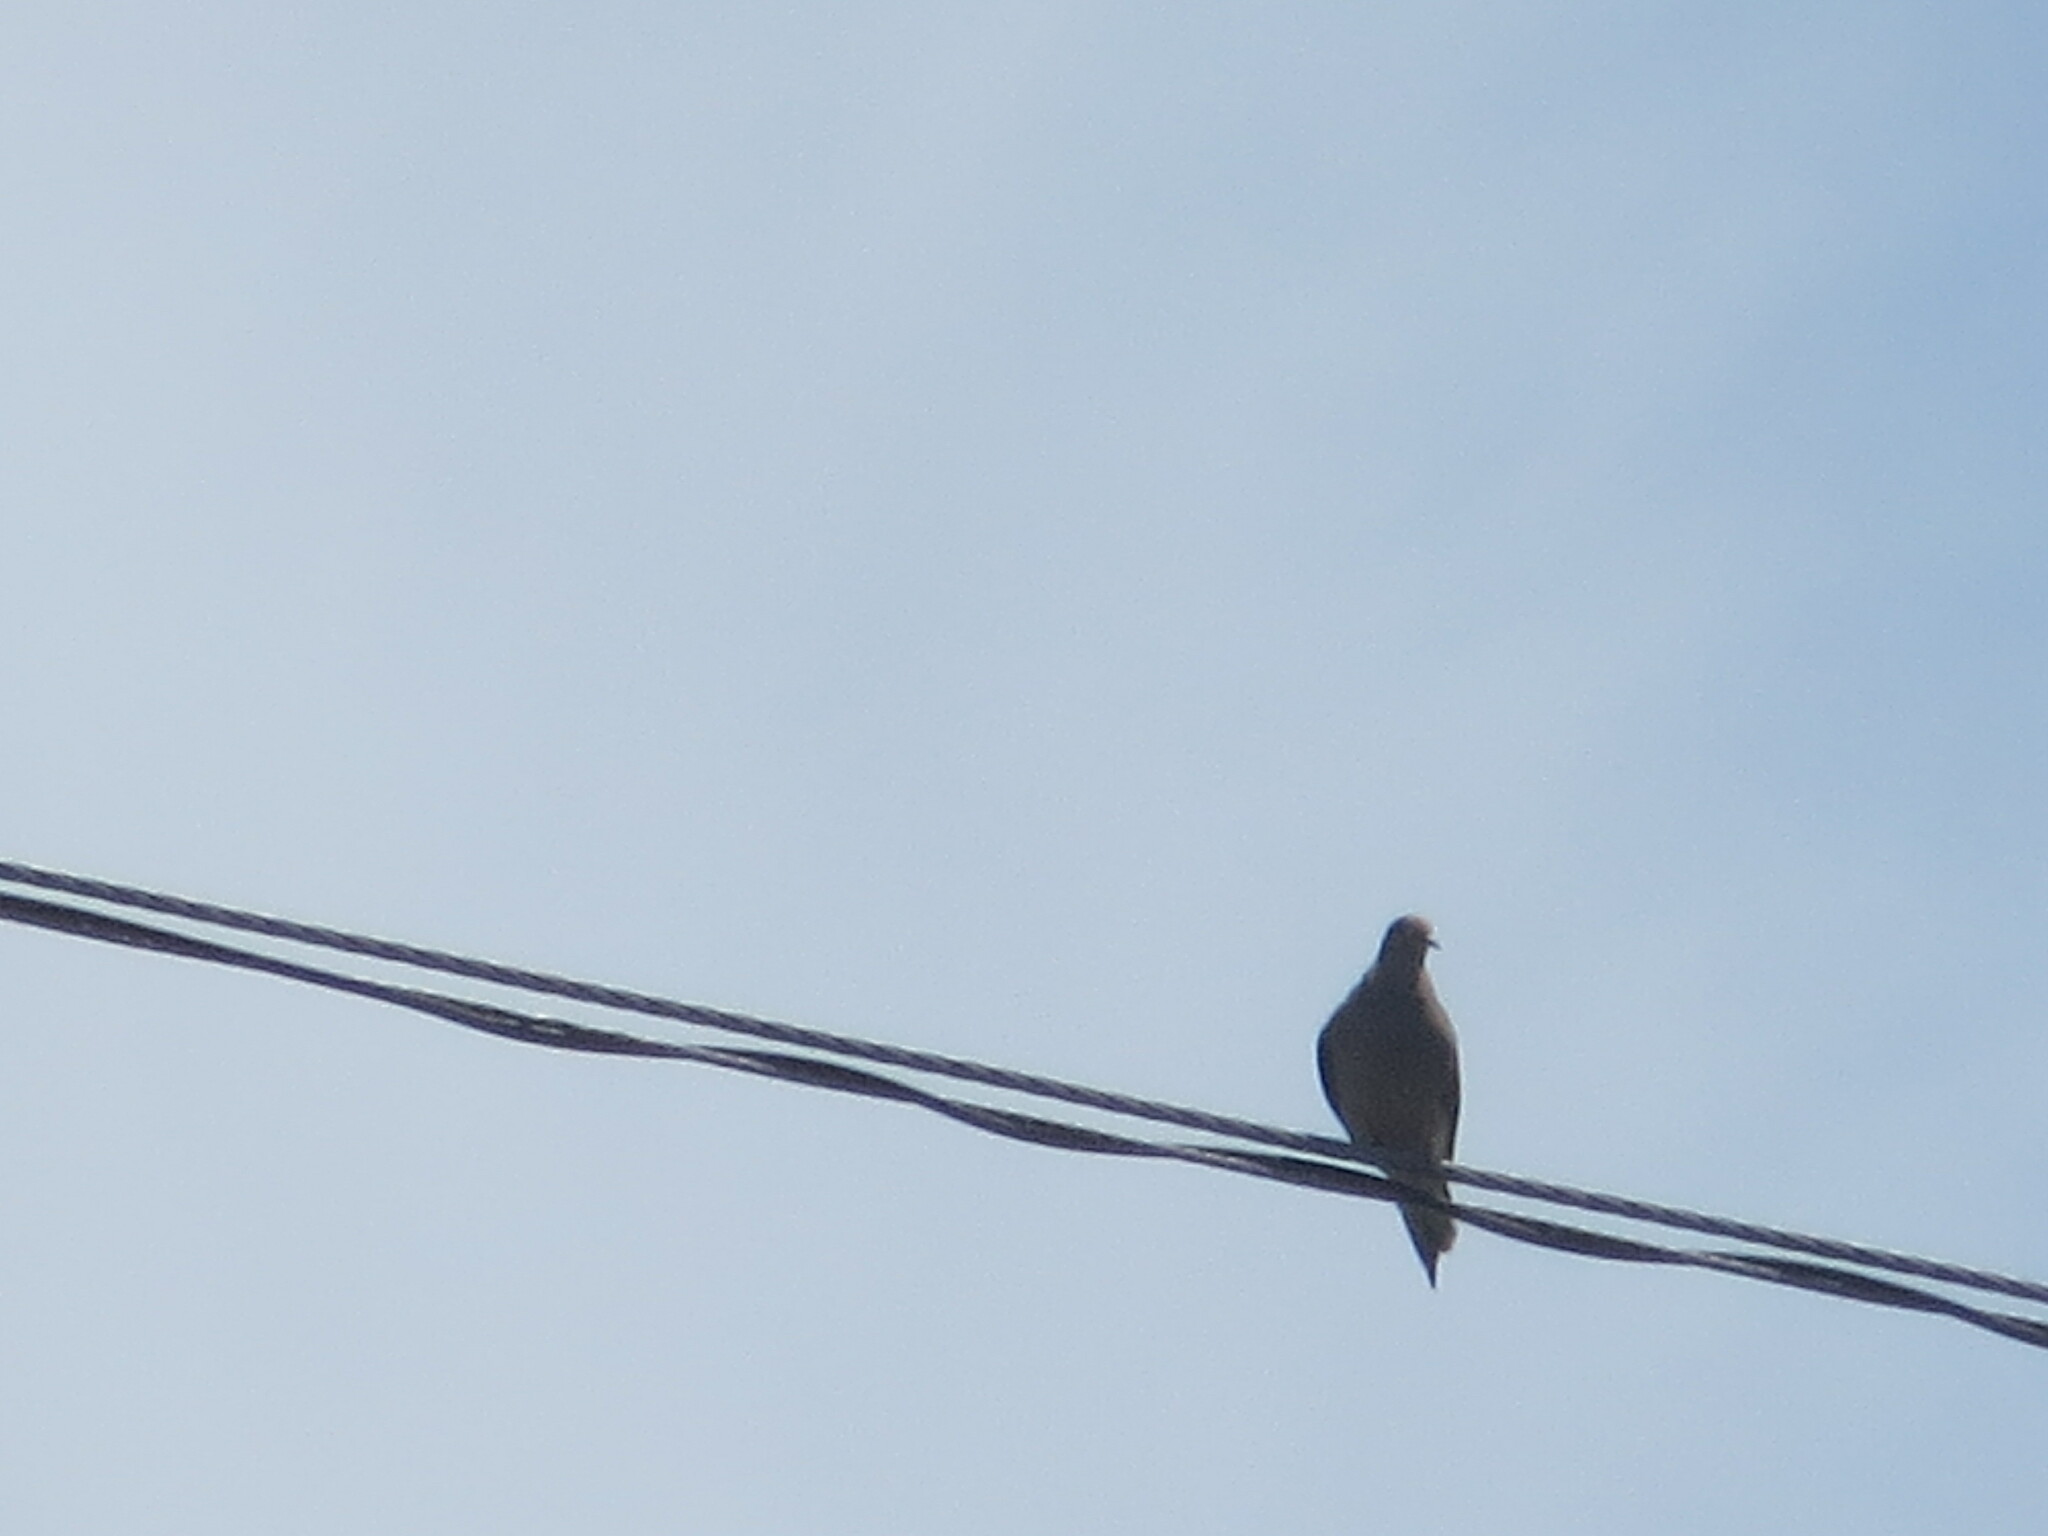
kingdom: Animalia
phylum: Chordata
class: Aves
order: Columbiformes
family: Columbidae
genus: Zenaida
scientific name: Zenaida macroura
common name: Mourning dove
